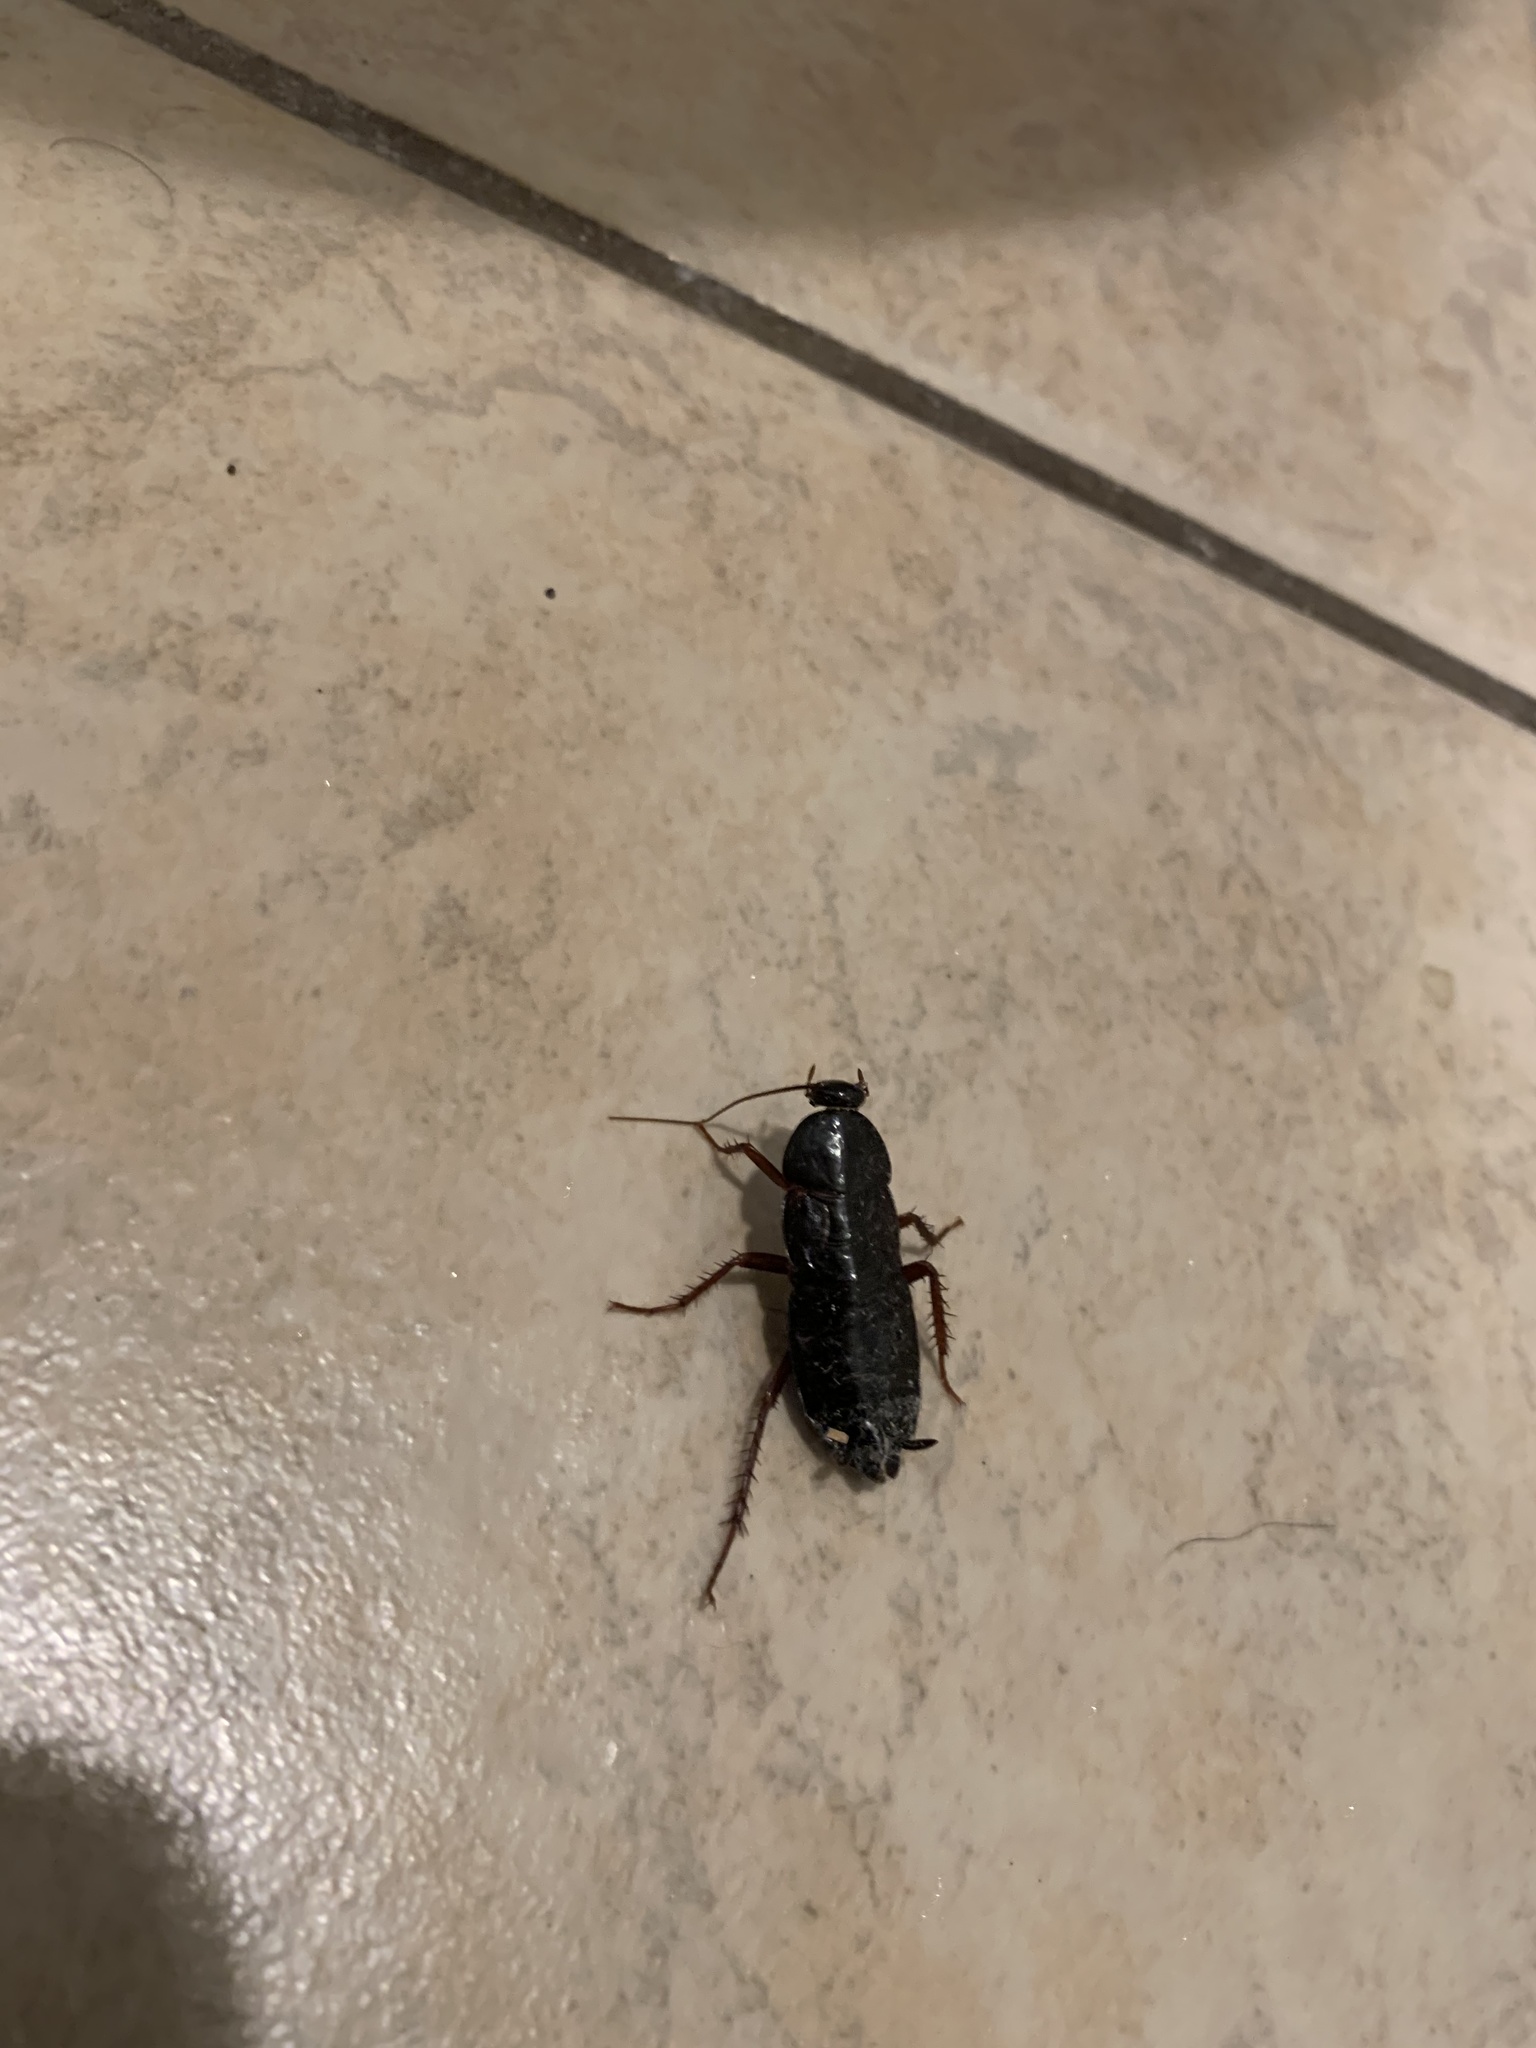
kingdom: Animalia
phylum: Arthropoda
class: Insecta
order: Blattodea
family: Blattidae
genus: Blatta
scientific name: Blatta orientalis
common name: Oriental cockroach
